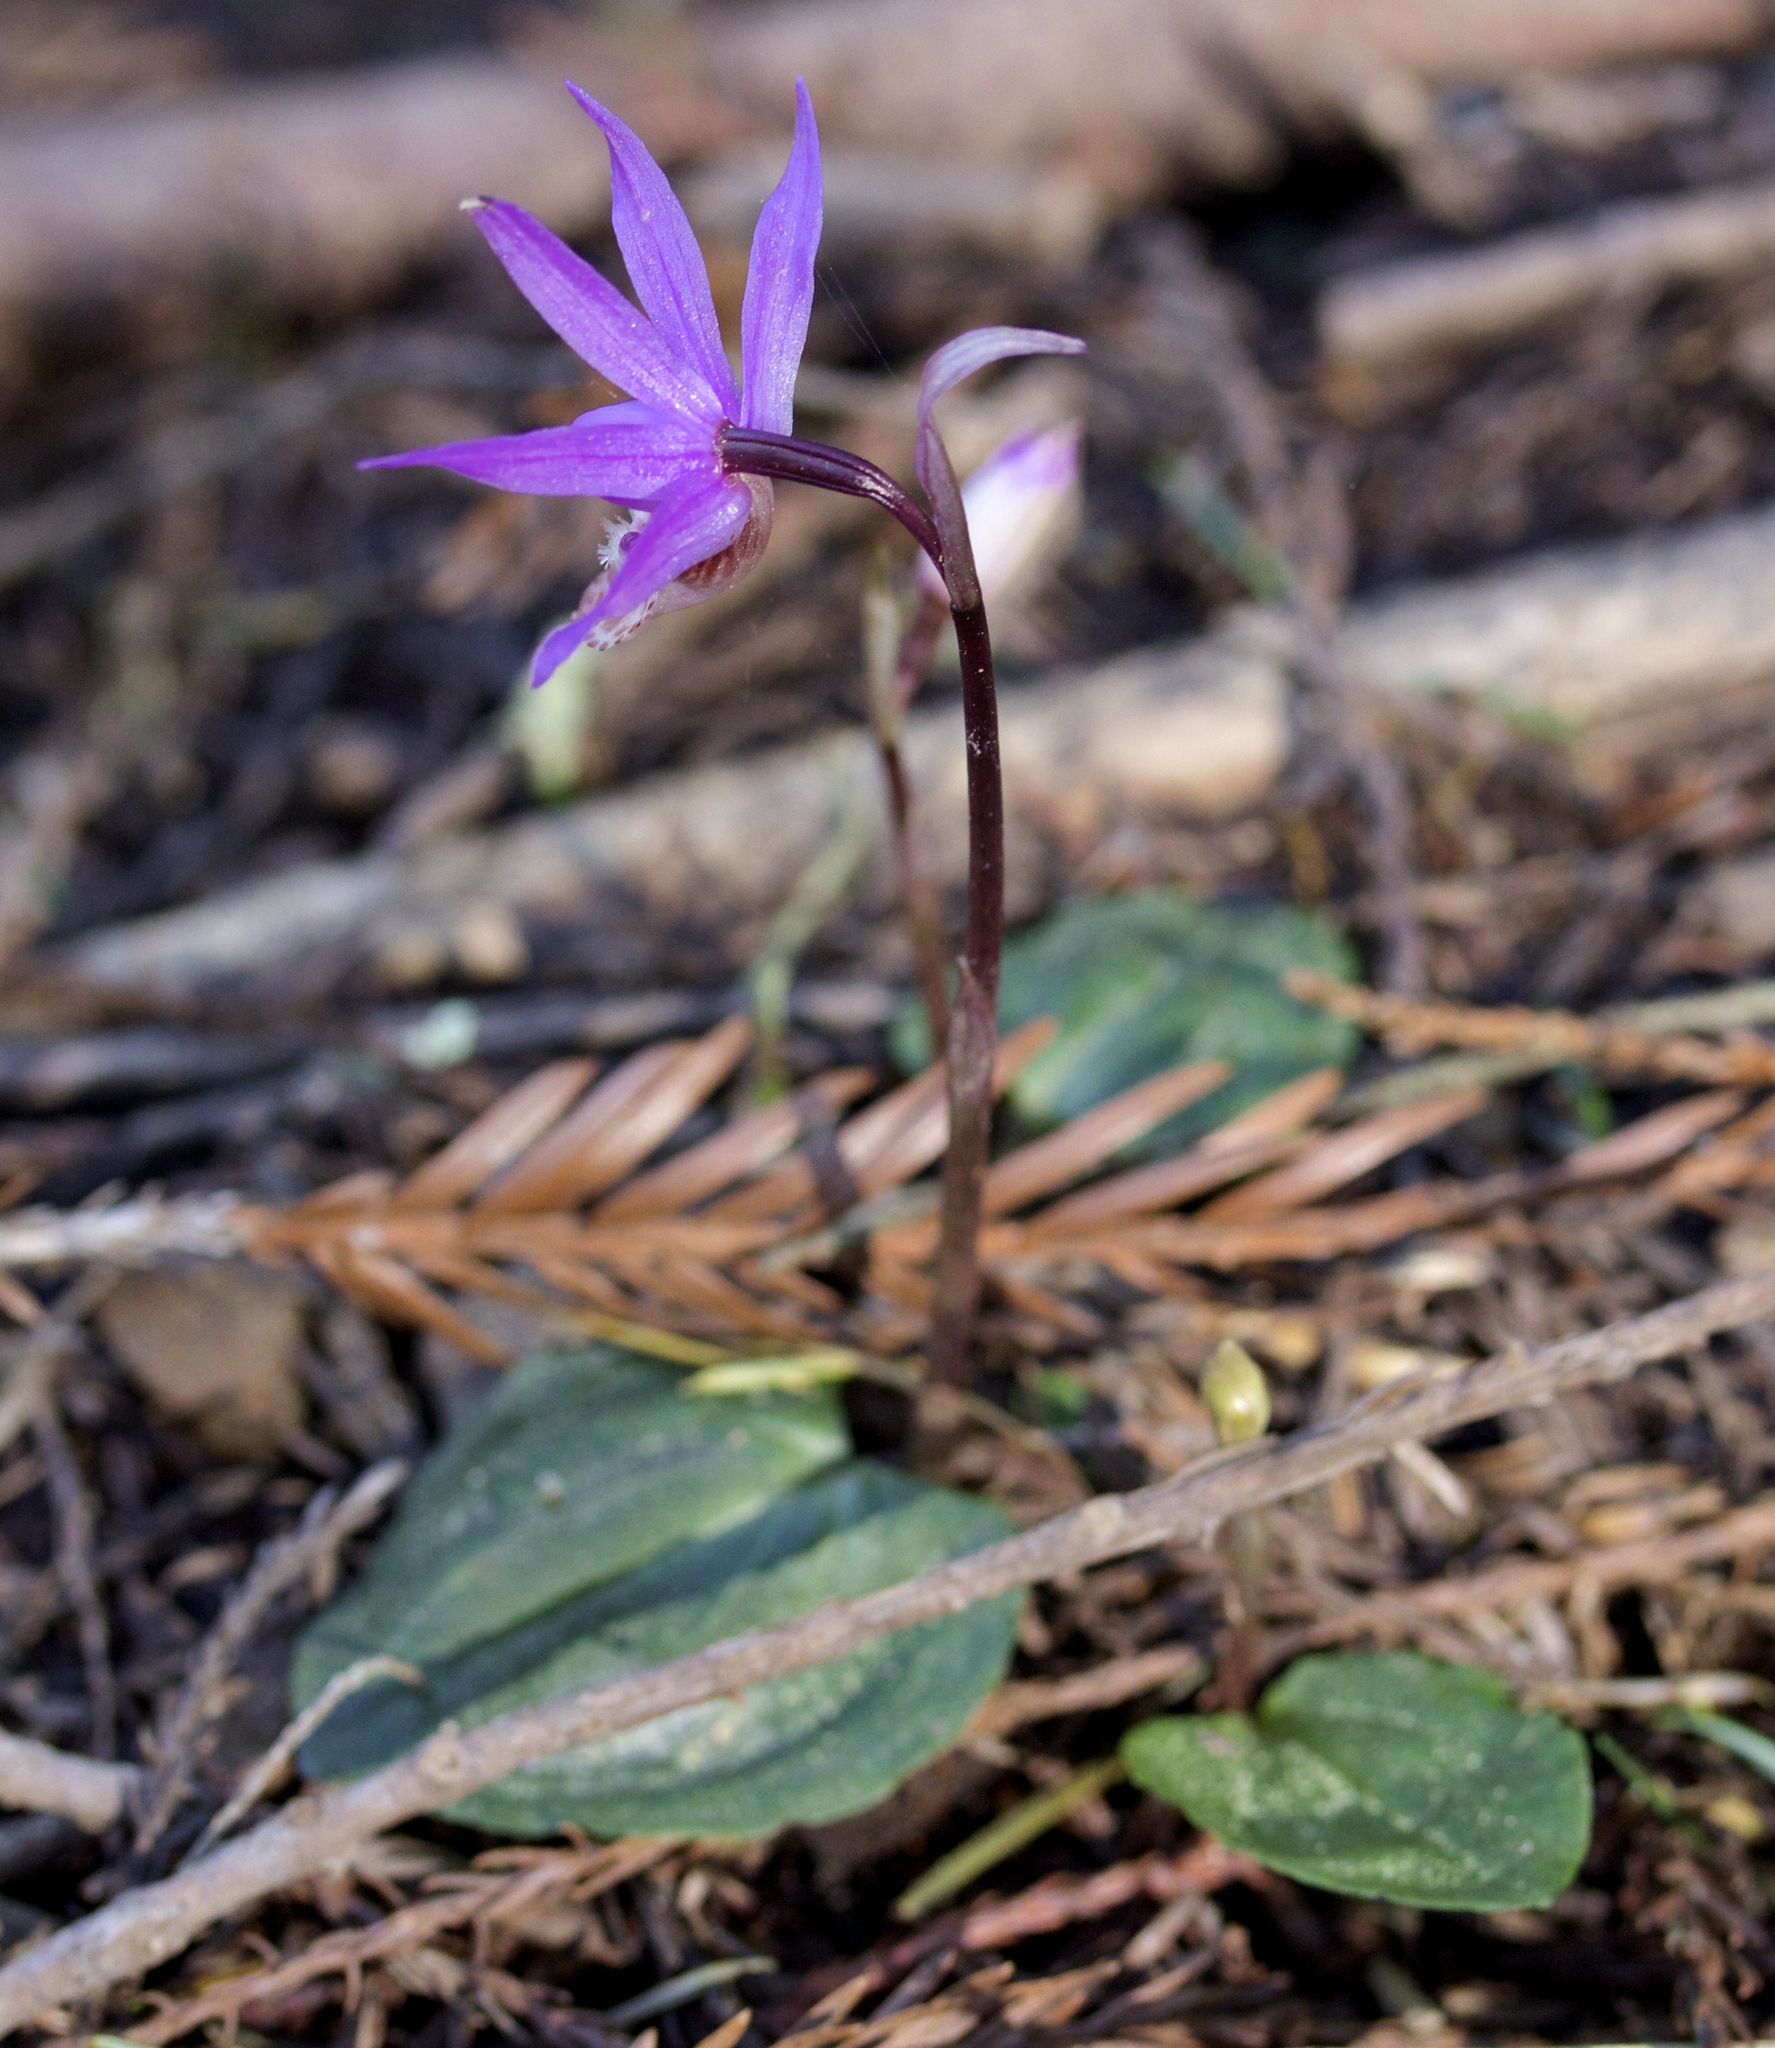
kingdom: Plantae
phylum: Tracheophyta
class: Liliopsida
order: Asparagales
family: Orchidaceae
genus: Calypso
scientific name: Calypso bulbosa
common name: Calypso
